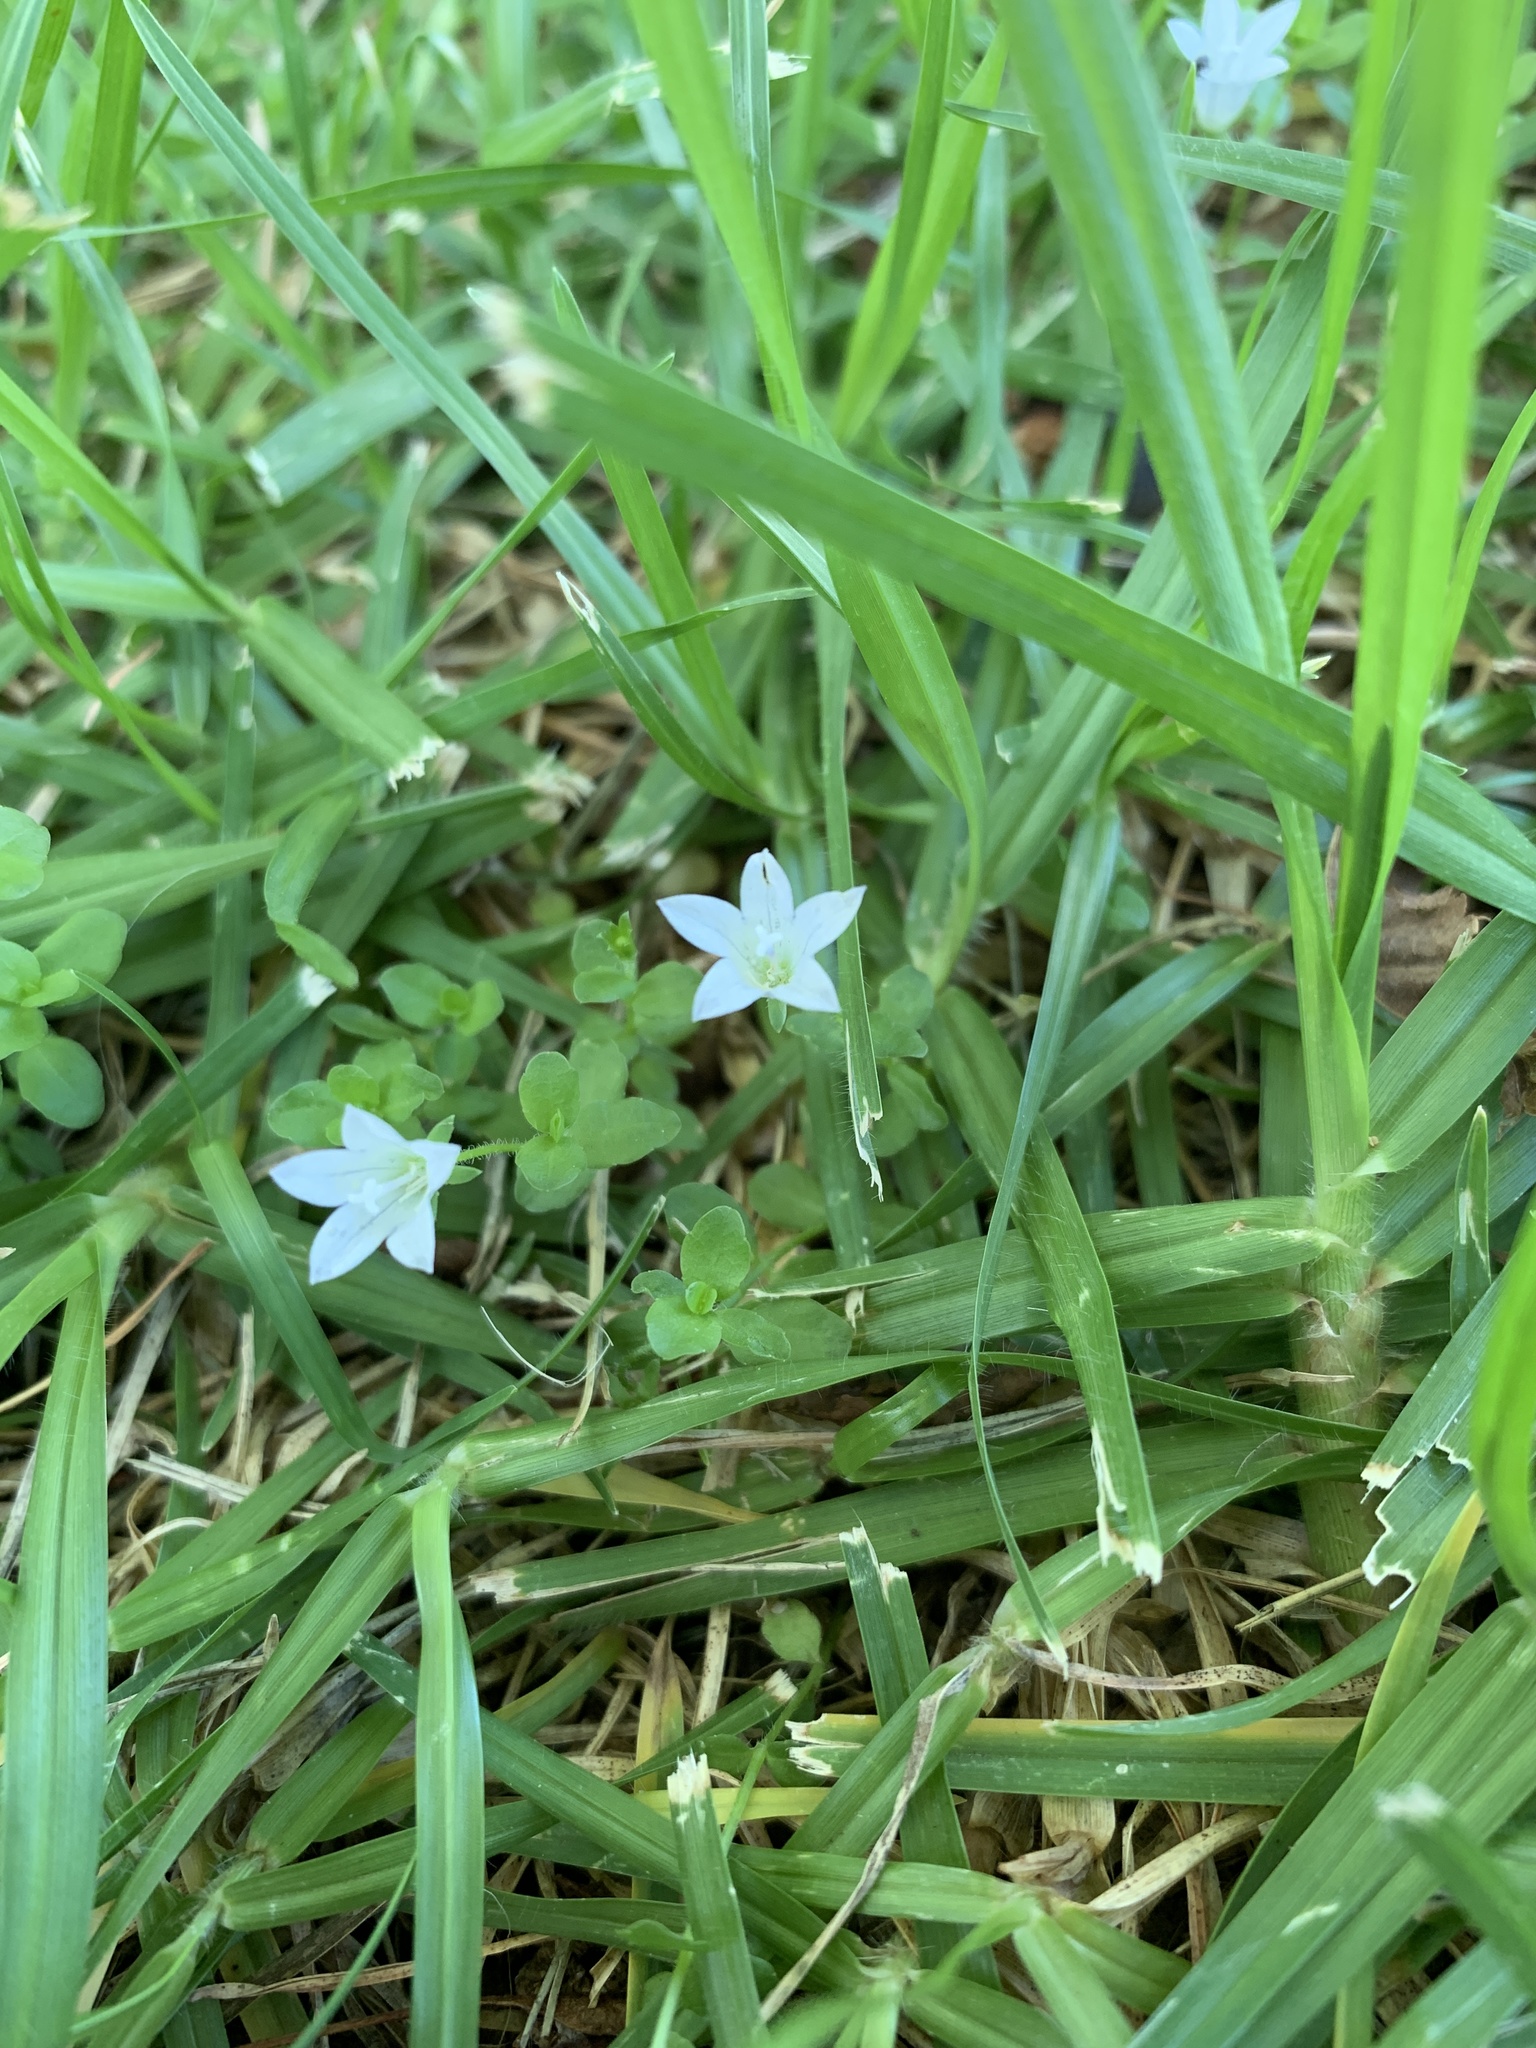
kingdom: Plantae
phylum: Tracheophyta
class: Magnoliopsida
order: Asterales
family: Campanulaceae
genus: Wahlenbergia
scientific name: Wahlenbergia procumbens
